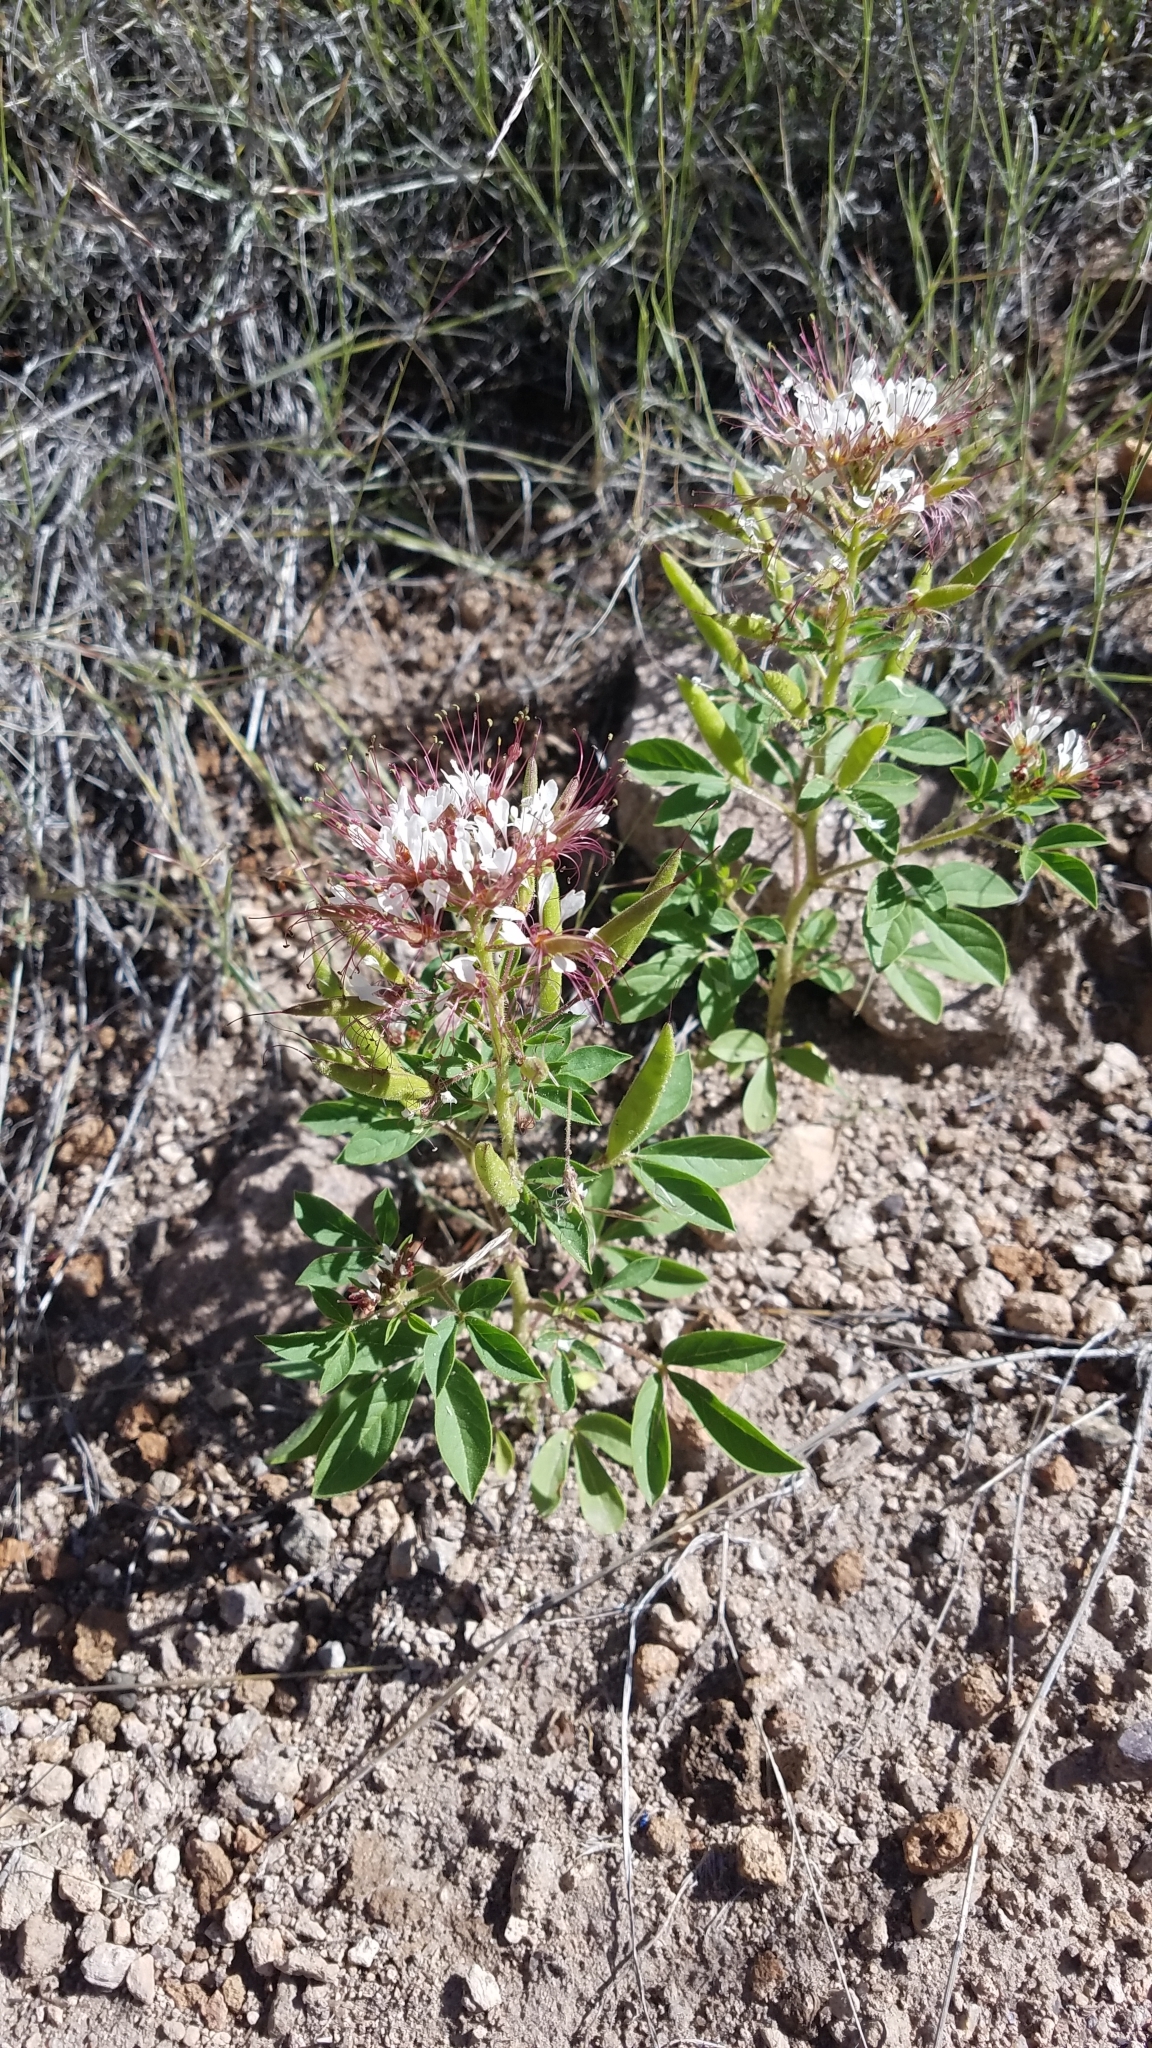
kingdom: Plantae
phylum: Tracheophyta
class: Magnoliopsida
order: Brassicales
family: Cleomaceae
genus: Polanisia
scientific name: Polanisia dodecandra
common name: Clammyweed
